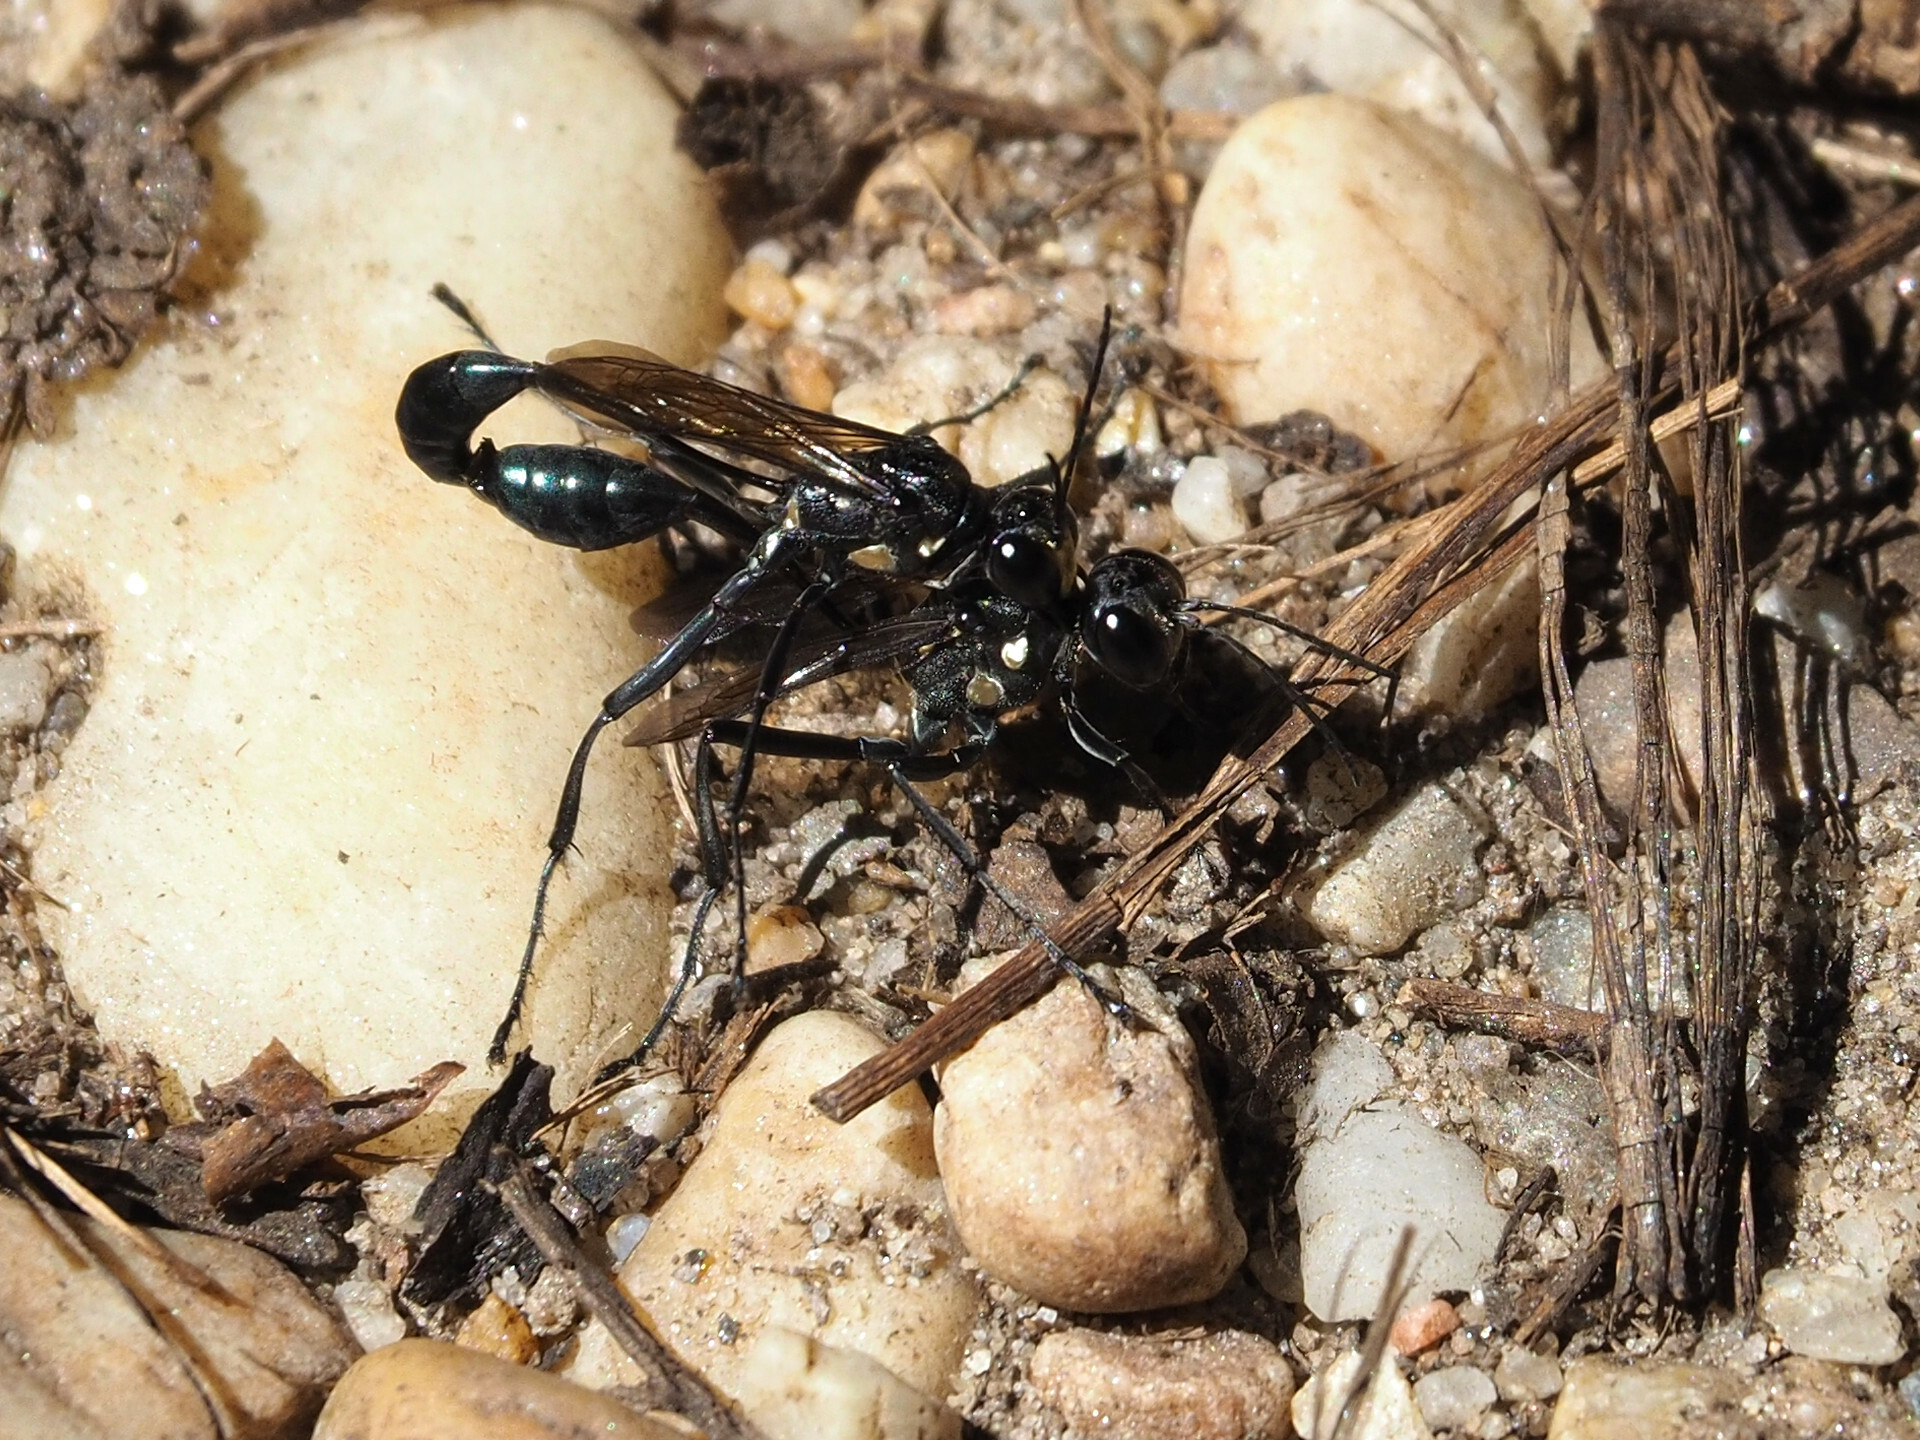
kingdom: Animalia
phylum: Arthropoda
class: Insecta
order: Hymenoptera
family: Sphecidae
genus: Eremnophila
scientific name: Eremnophila aureonotata
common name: Gold-marked thread-waisted wasp
